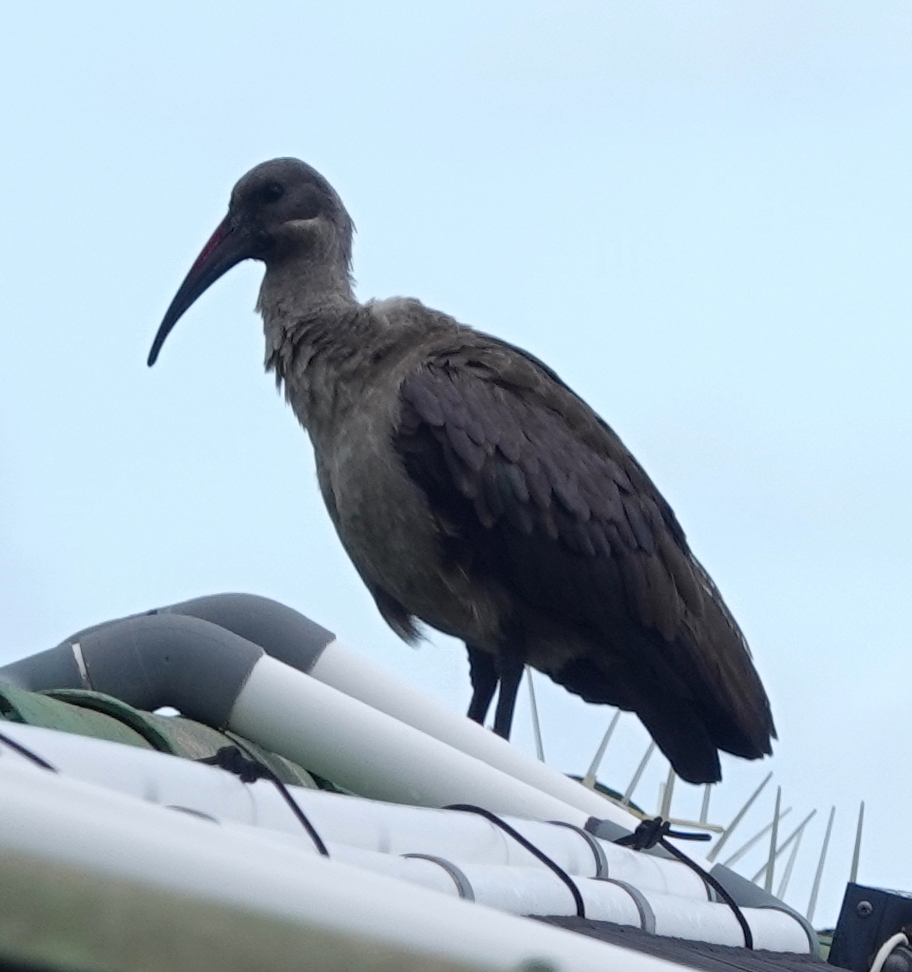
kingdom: Animalia
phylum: Chordata
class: Aves
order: Pelecaniformes
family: Threskiornithidae
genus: Bostrychia
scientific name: Bostrychia hagedash
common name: Hadada ibis
